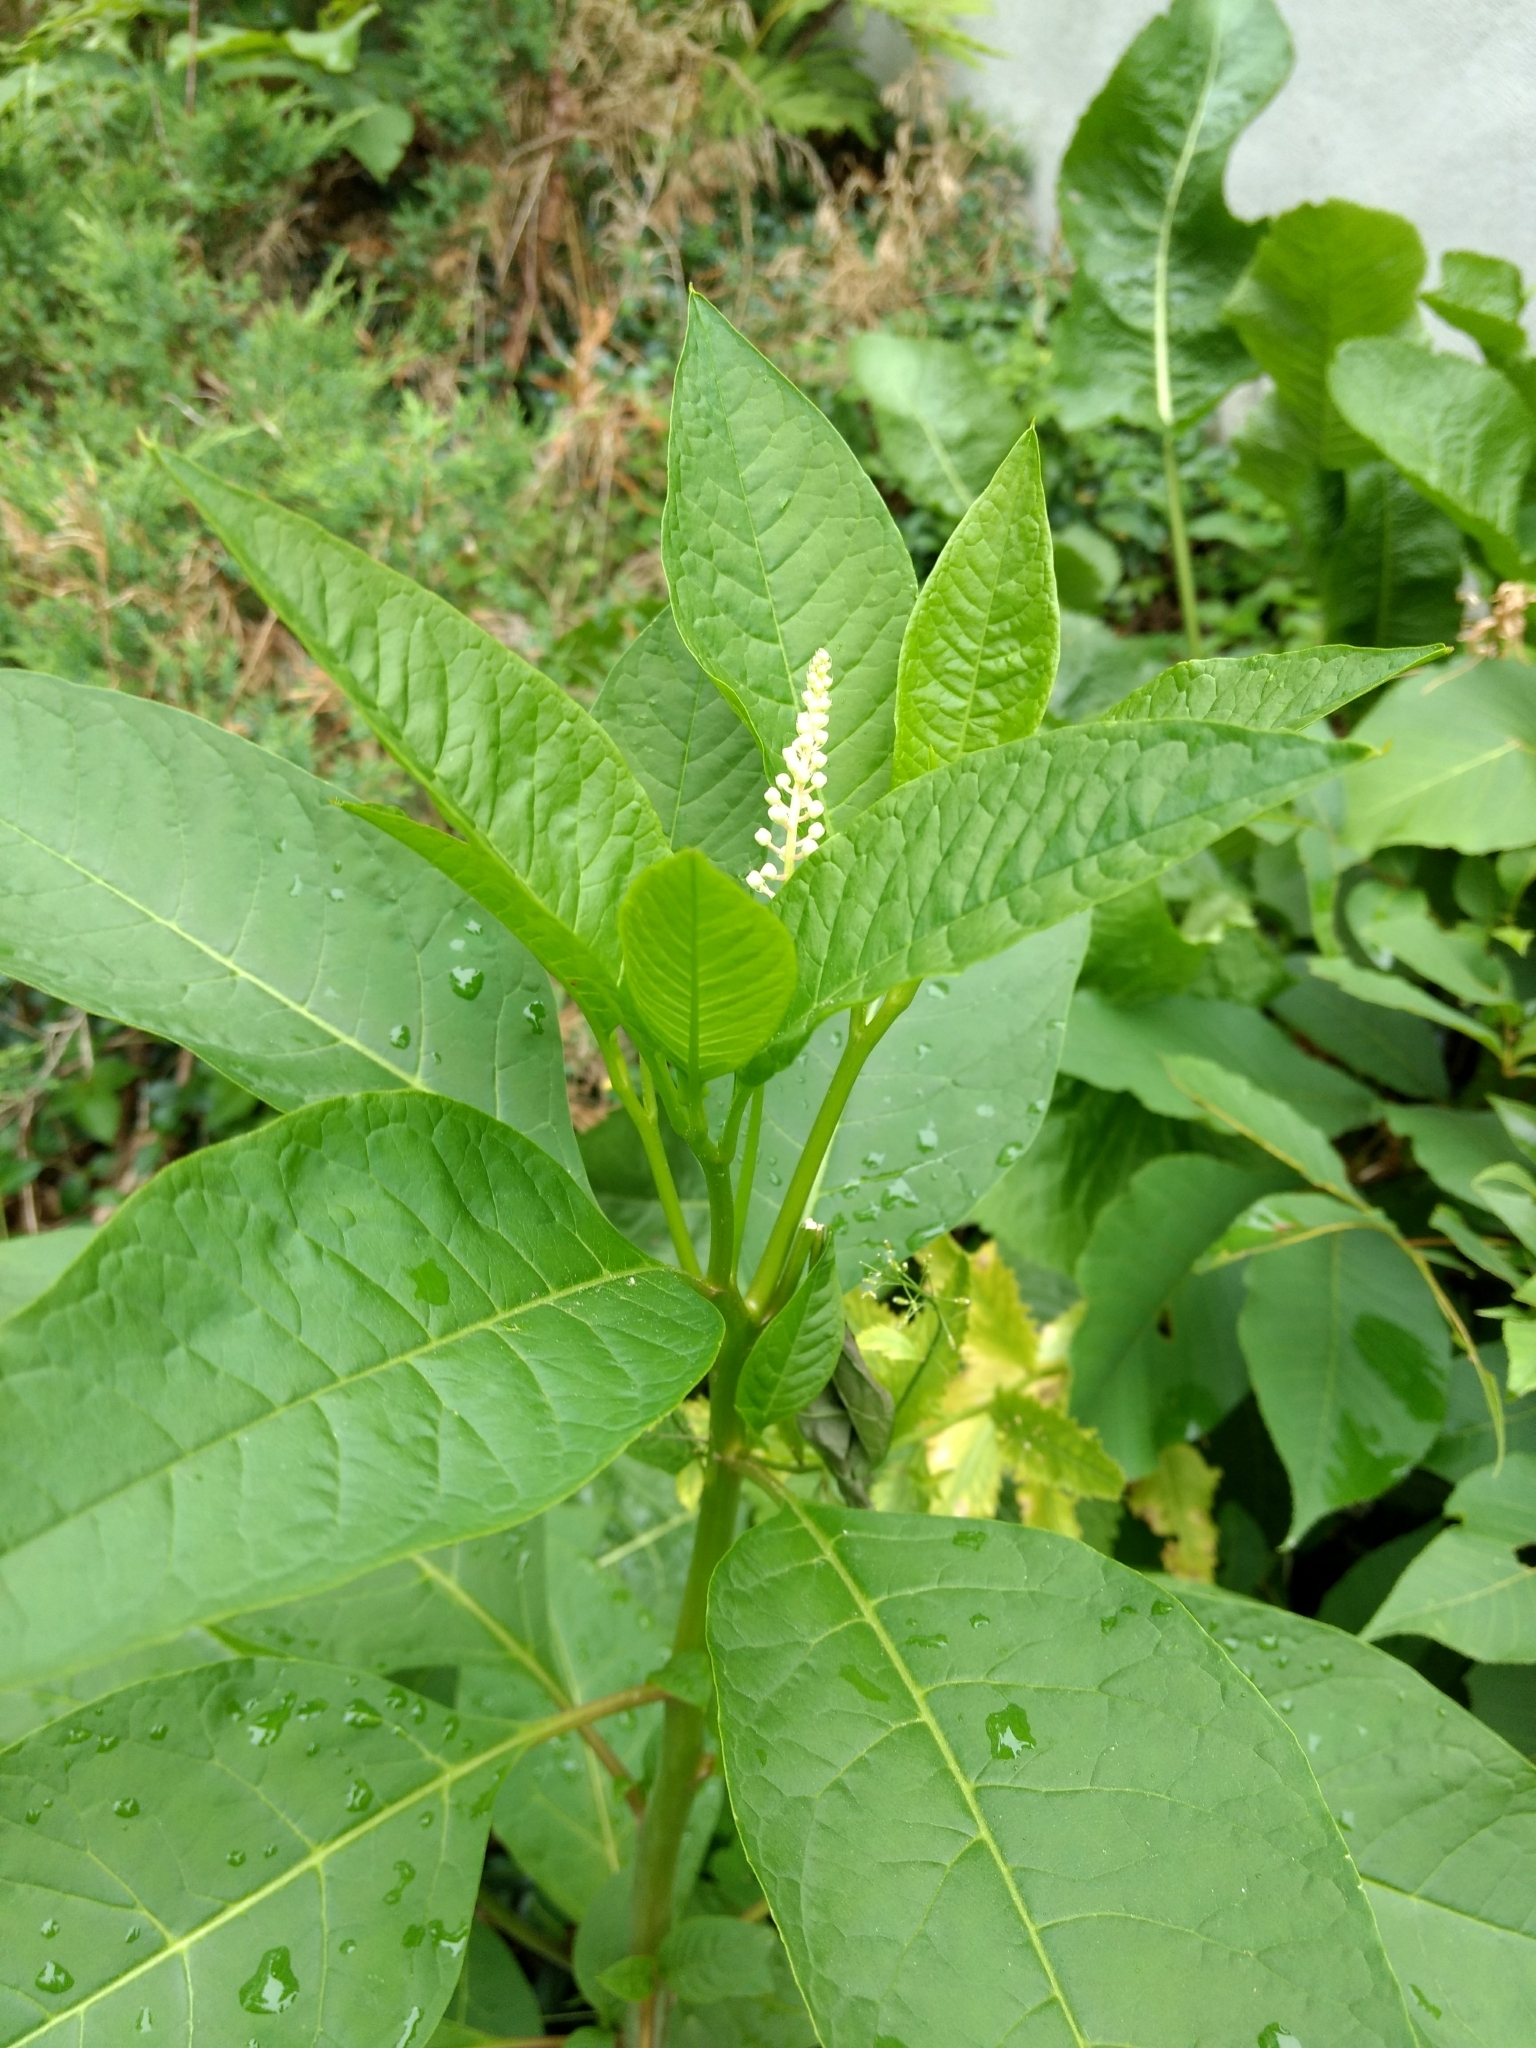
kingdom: Plantae
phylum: Tracheophyta
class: Magnoliopsida
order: Caryophyllales
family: Phytolaccaceae
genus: Phytolacca
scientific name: Phytolacca americana
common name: American pokeweed
